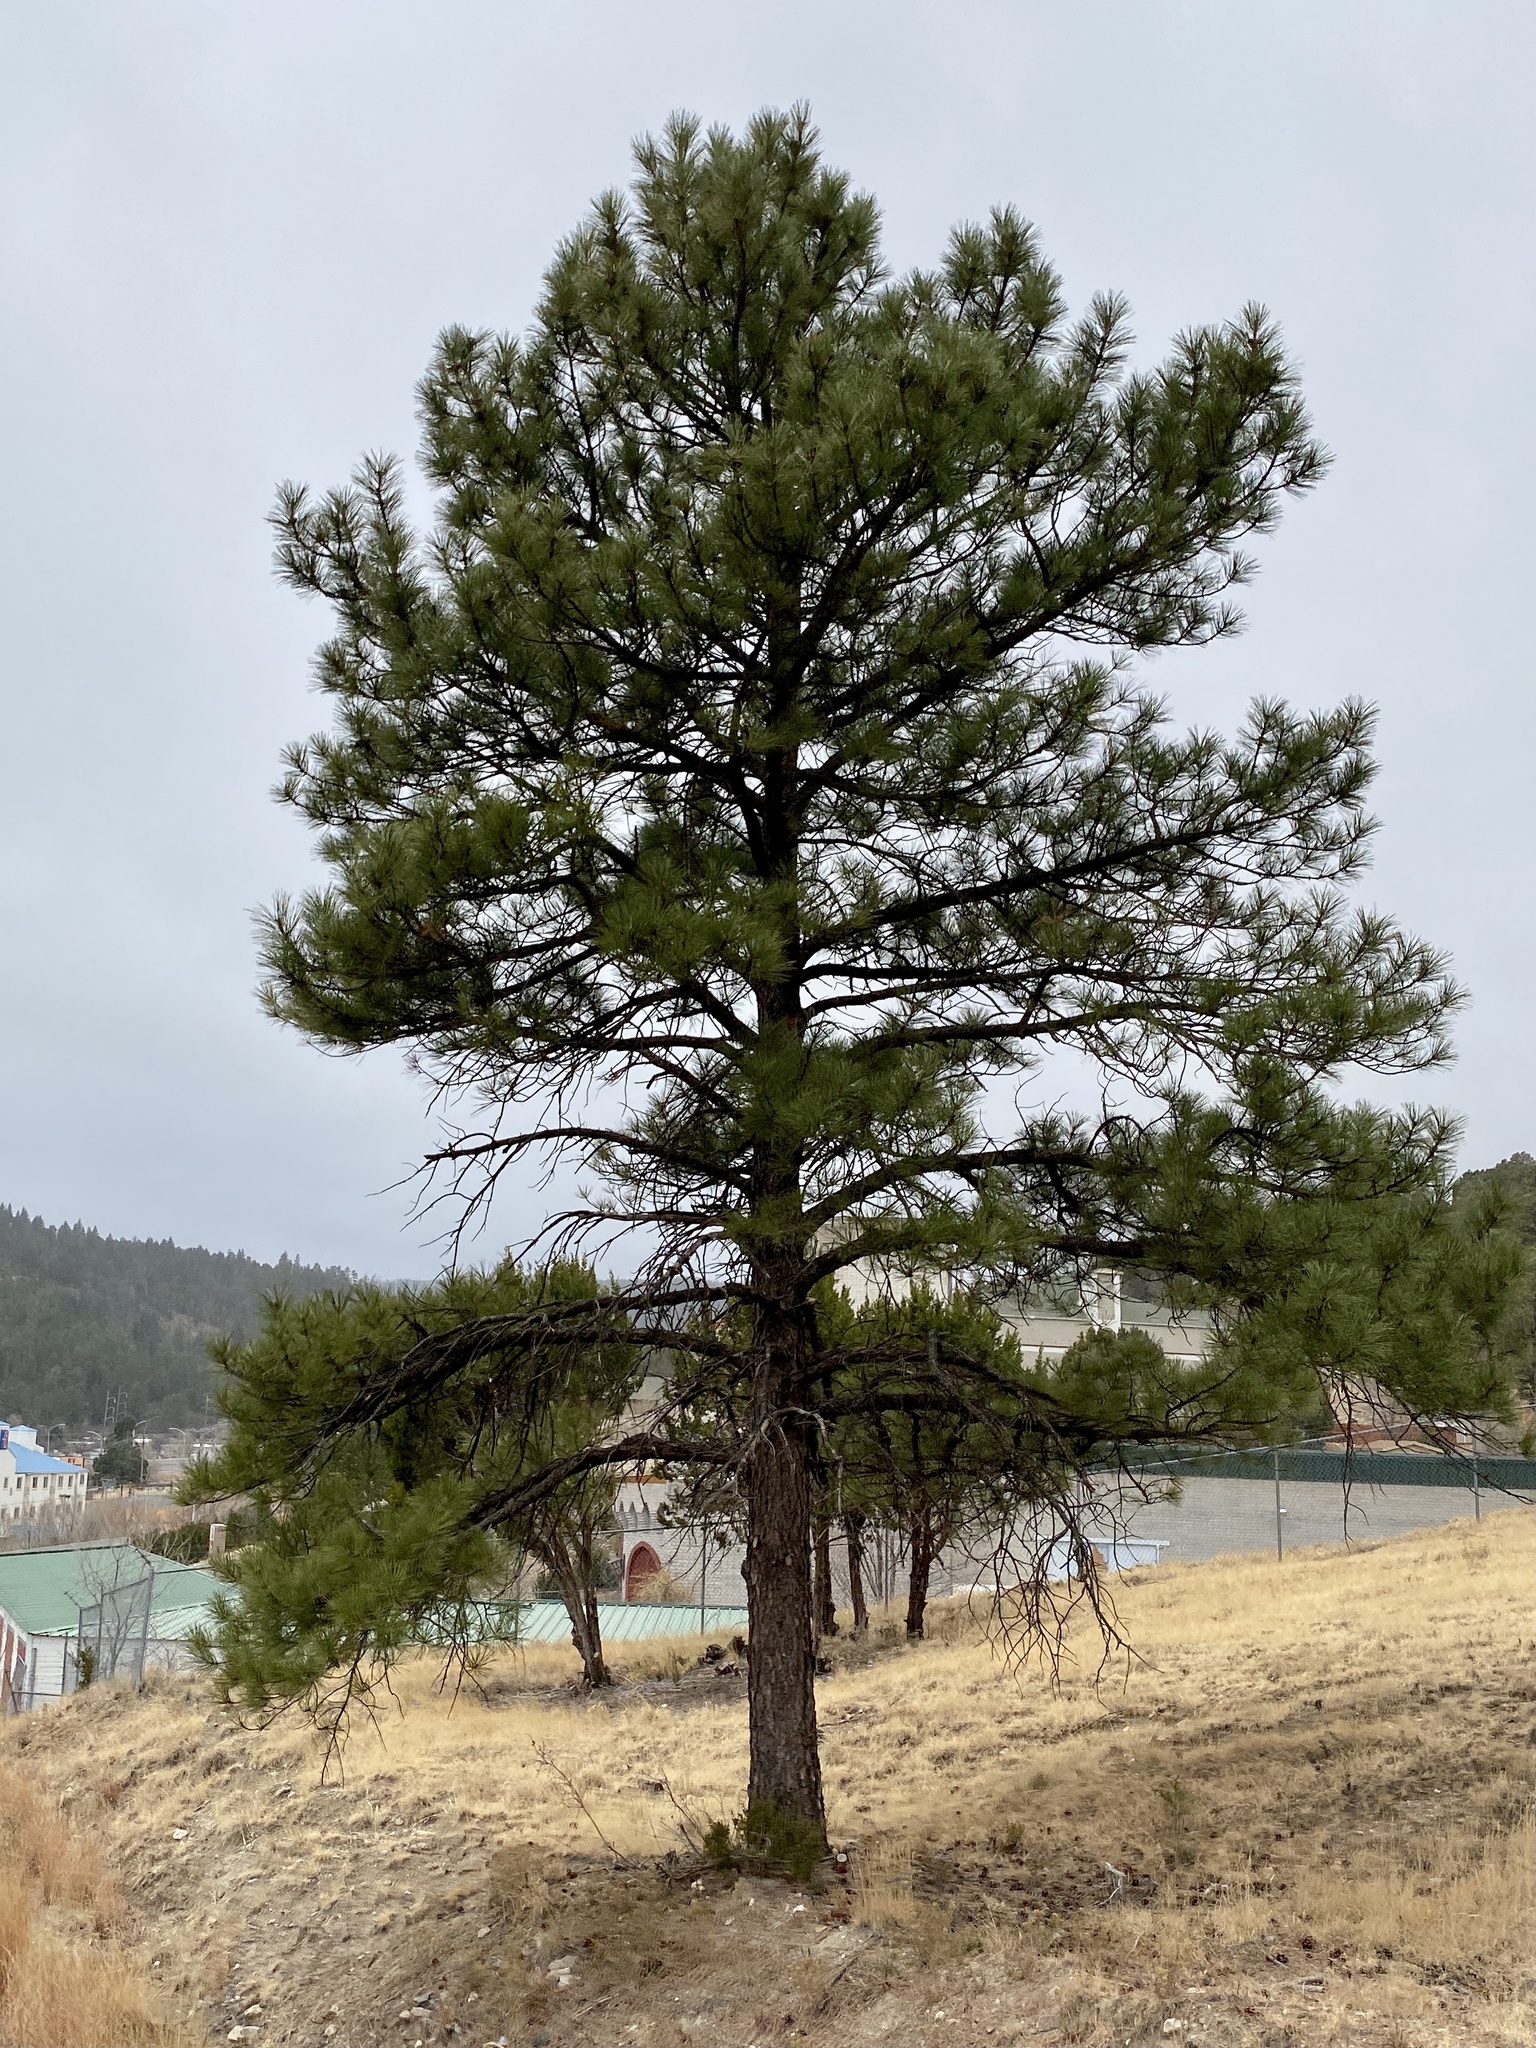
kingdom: Plantae
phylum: Tracheophyta
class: Pinopsida
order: Pinales
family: Pinaceae
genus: Pinus
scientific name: Pinus ponderosa
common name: Western yellow-pine
